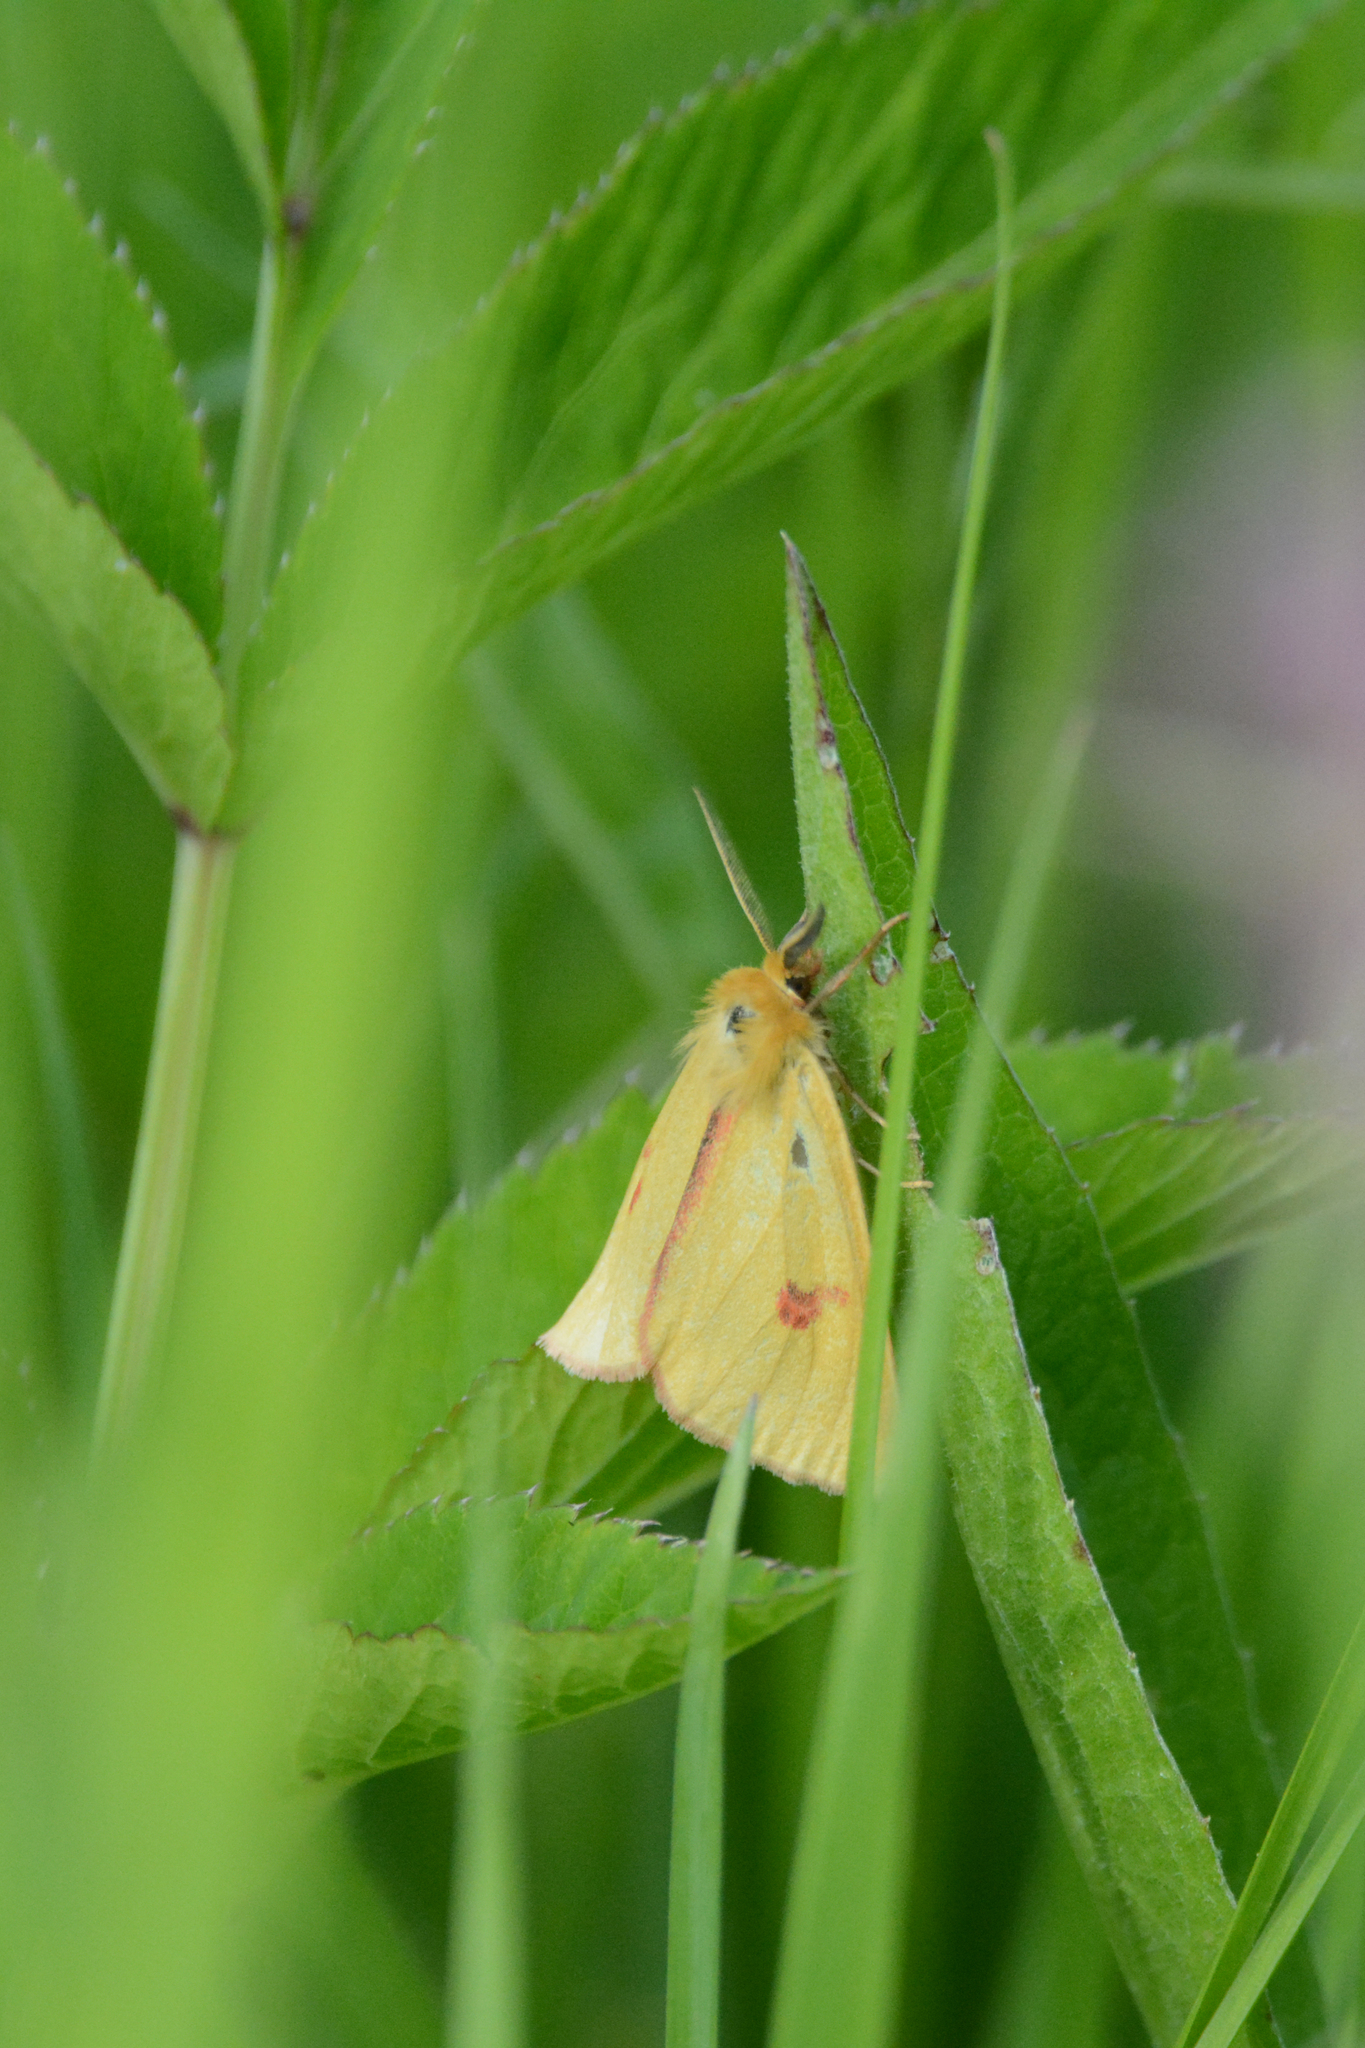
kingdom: Animalia
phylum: Arthropoda
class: Insecta
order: Lepidoptera
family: Erebidae
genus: Diacrisia
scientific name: Diacrisia sannio
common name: Clouded buff
